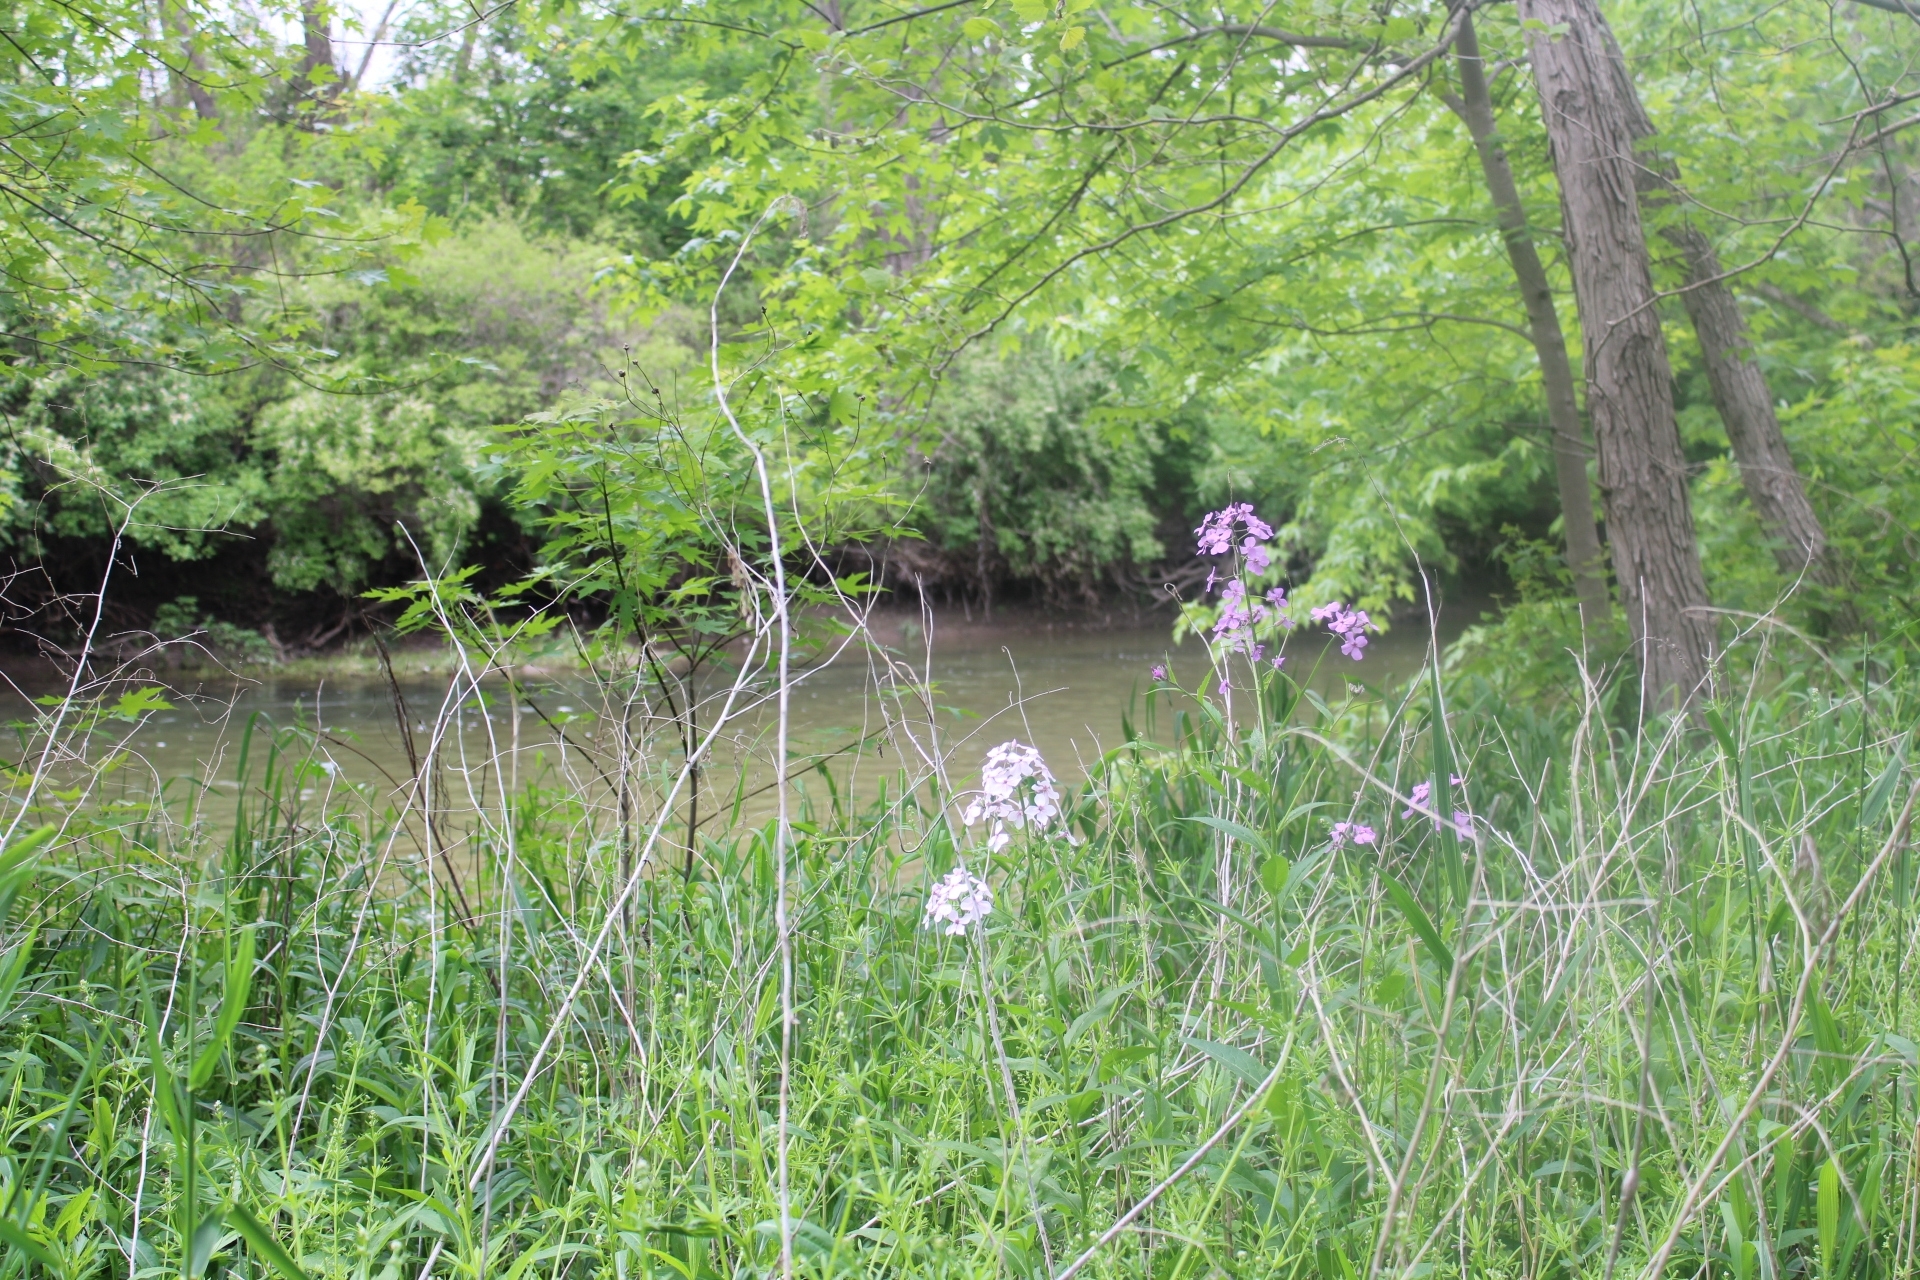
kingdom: Plantae
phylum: Tracheophyta
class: Magnoliopsida
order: Brassicales
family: Brassicaceae
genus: Hesperis
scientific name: Hesperis matronalis
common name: Dame's-violet
